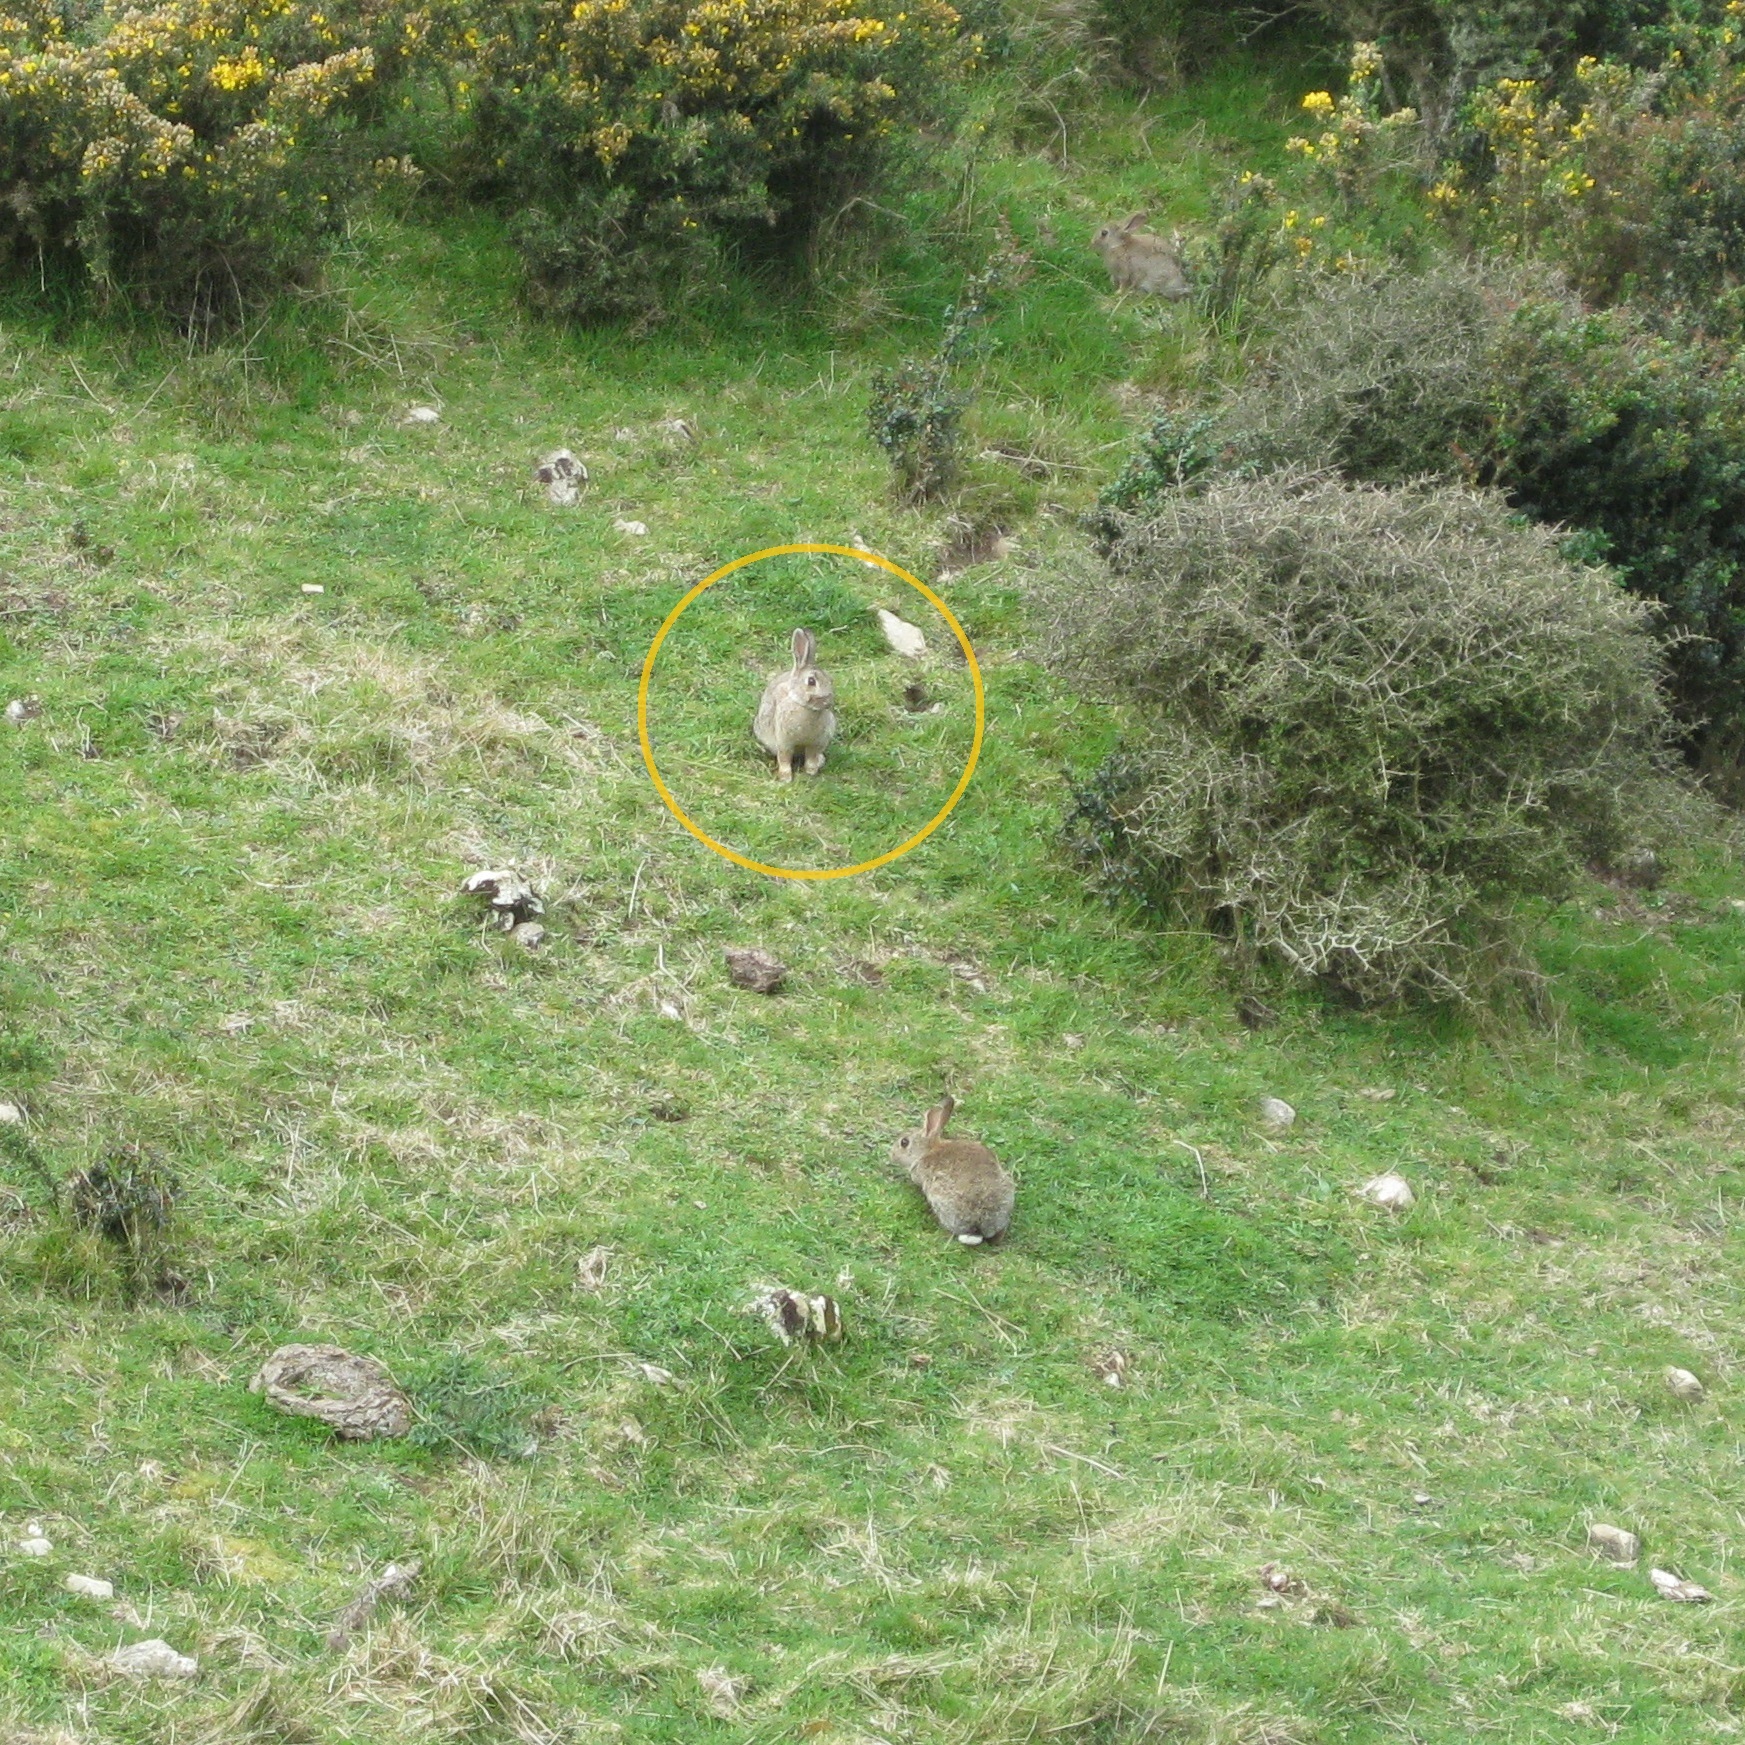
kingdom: Animalia
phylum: Chordata
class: Mammalia
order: Lagomorpha
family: Leporidae
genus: Oryctolagus
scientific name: Oryctolagus cuniculus
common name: European rabbit
